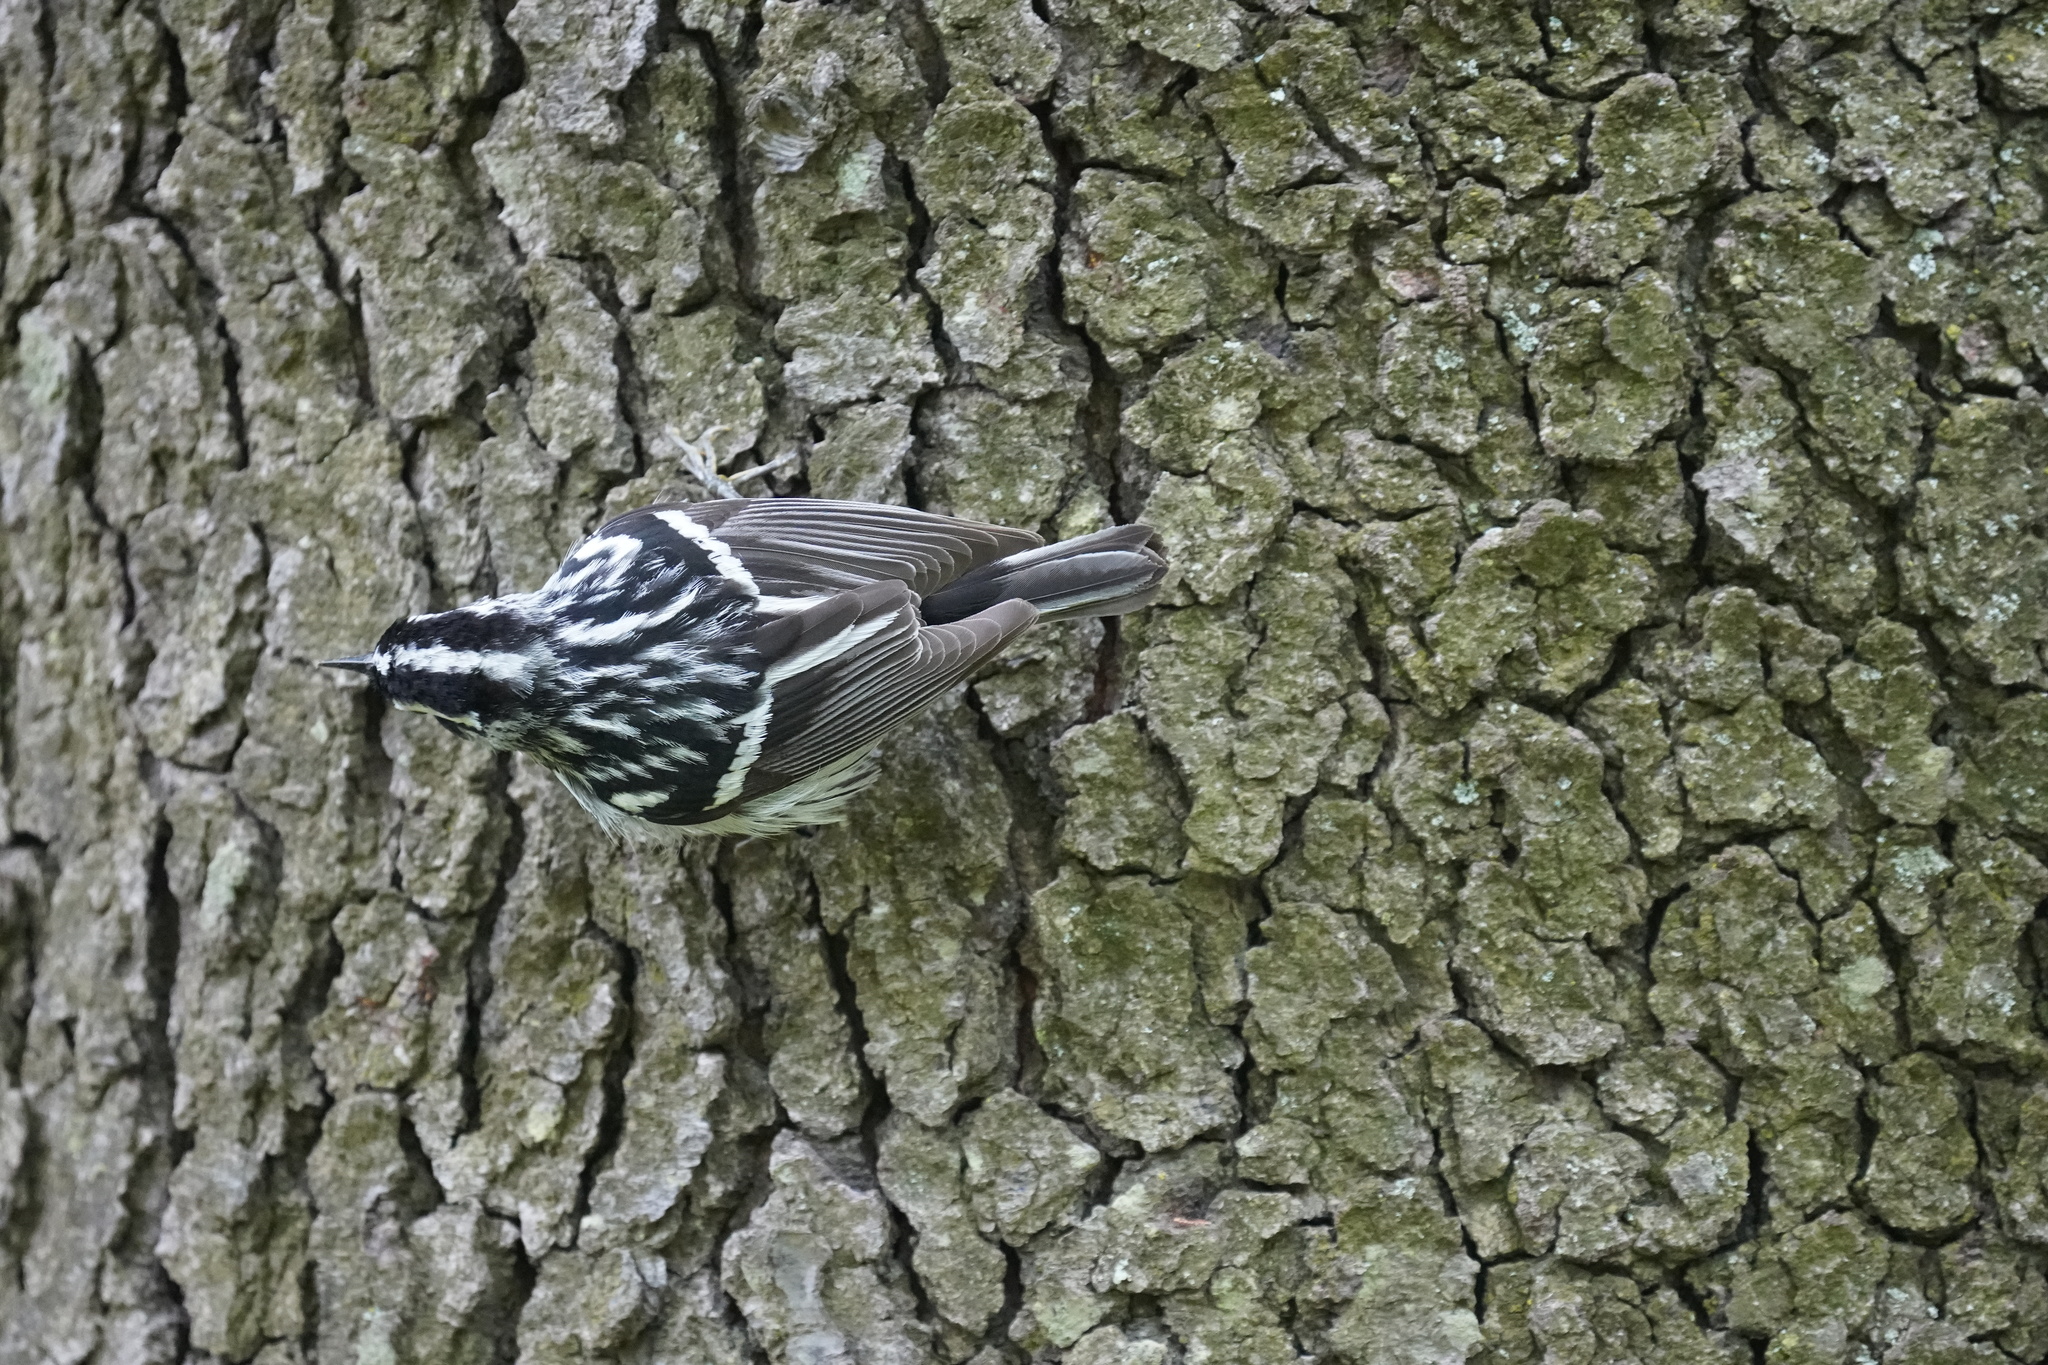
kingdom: Animalia
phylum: Chordata
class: Aves
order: Passeriformes
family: Parulidae
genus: Mniotilta
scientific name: Mniotilta varia
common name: Black-and-white warbler
